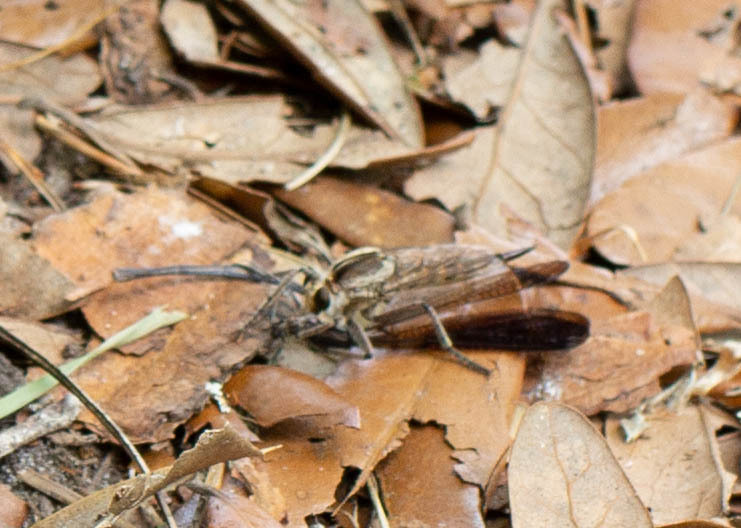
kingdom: Animalia
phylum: Arthropoda
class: Insecta
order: Diptera
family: Asilidae
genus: Triorla
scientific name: Triorla interrupta
